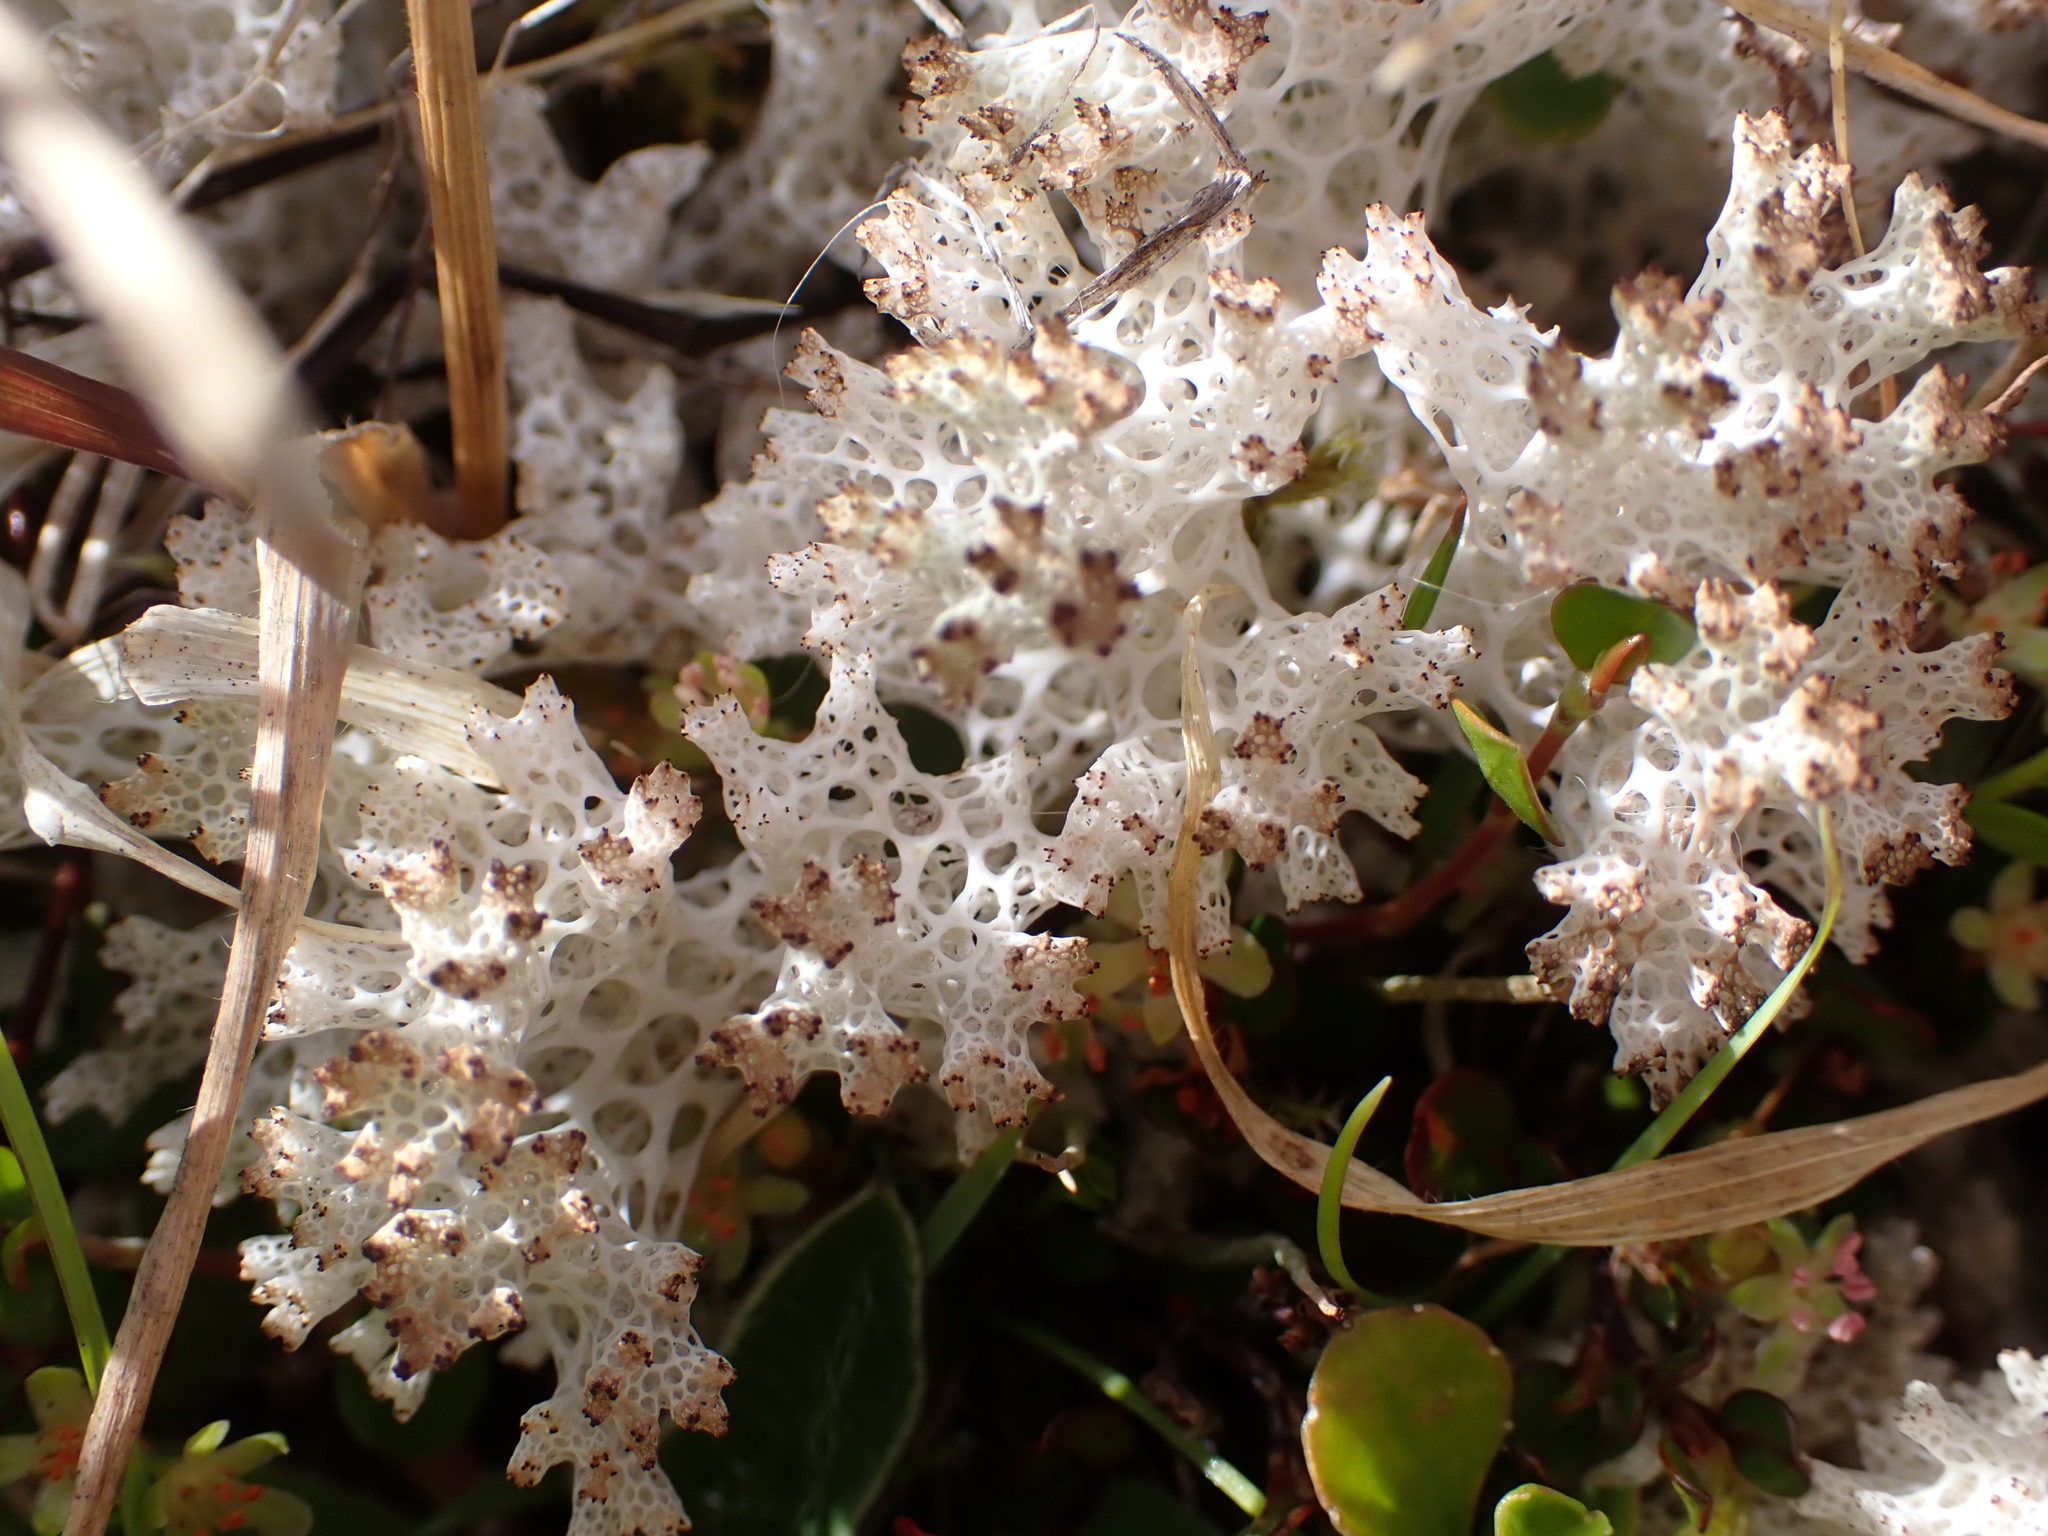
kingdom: Fungi
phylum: Ascomycota
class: Lecanoromycetes
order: Lecanorales
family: Cladoniaceae
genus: Pulchrocladia
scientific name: Pulchrocladia retipora
